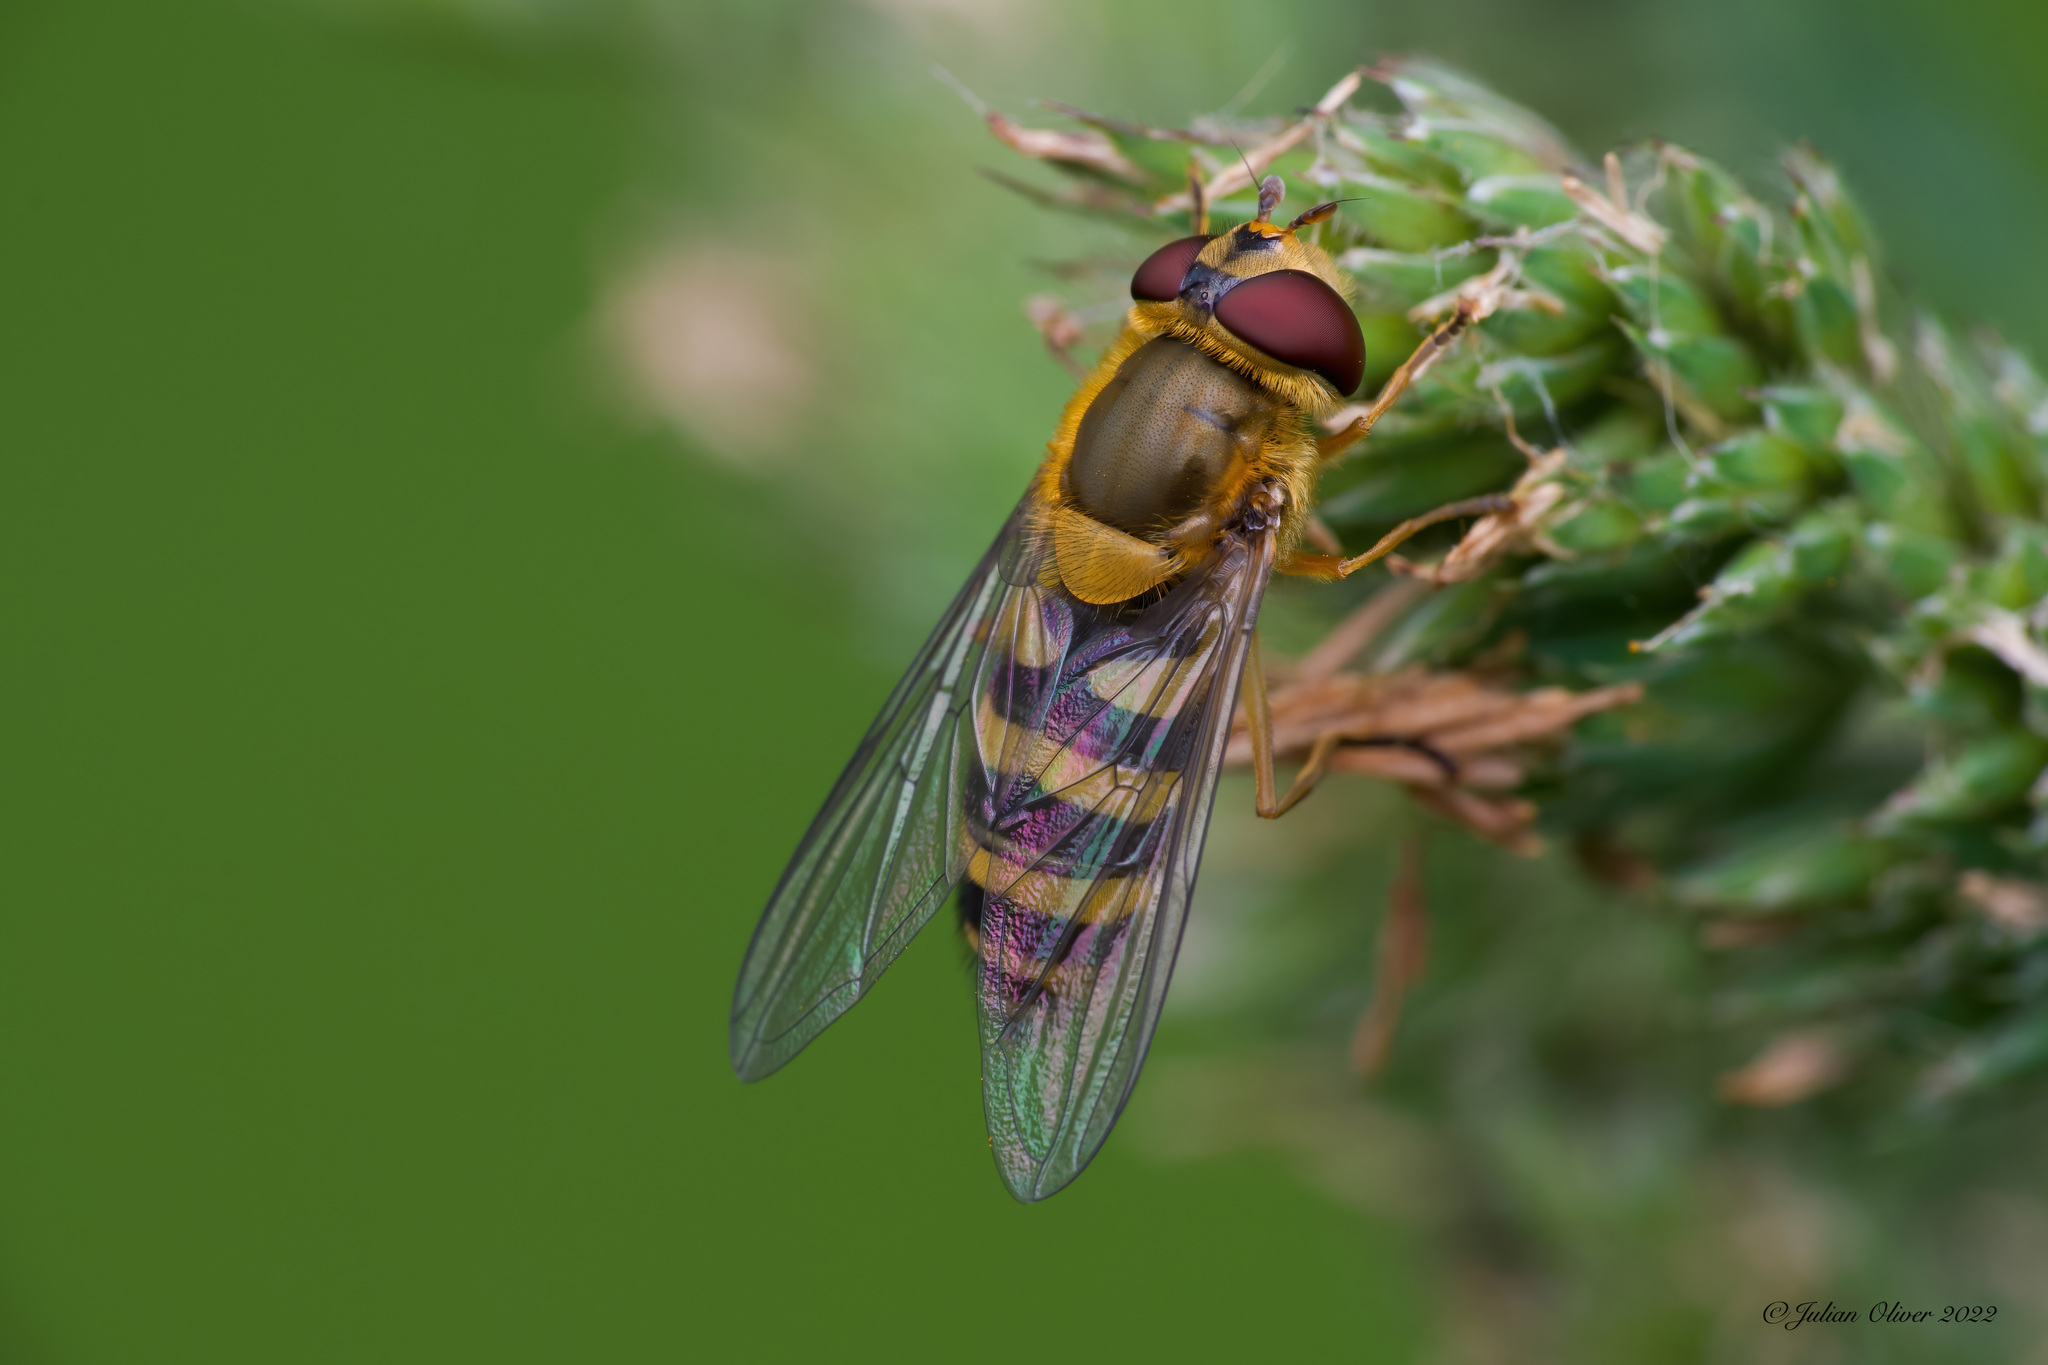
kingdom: Animalia
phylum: Arthropoda
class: Insecta
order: Diptera
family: Syrphidae
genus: Syrphus
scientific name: Syrphus ribesii
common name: Common flower fly
